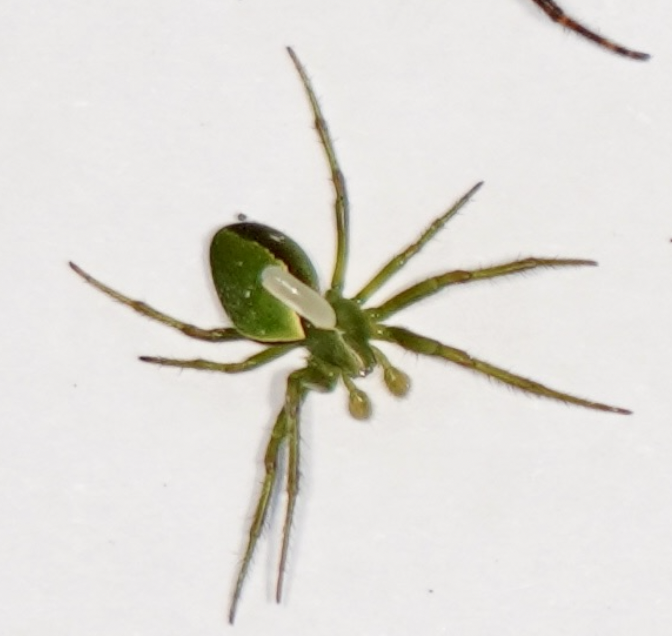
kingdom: Animalia
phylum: Arthropoda
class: Arachnida
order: Araneae
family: Araneidae
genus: Colaranea
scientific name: Colaranea viriditas
